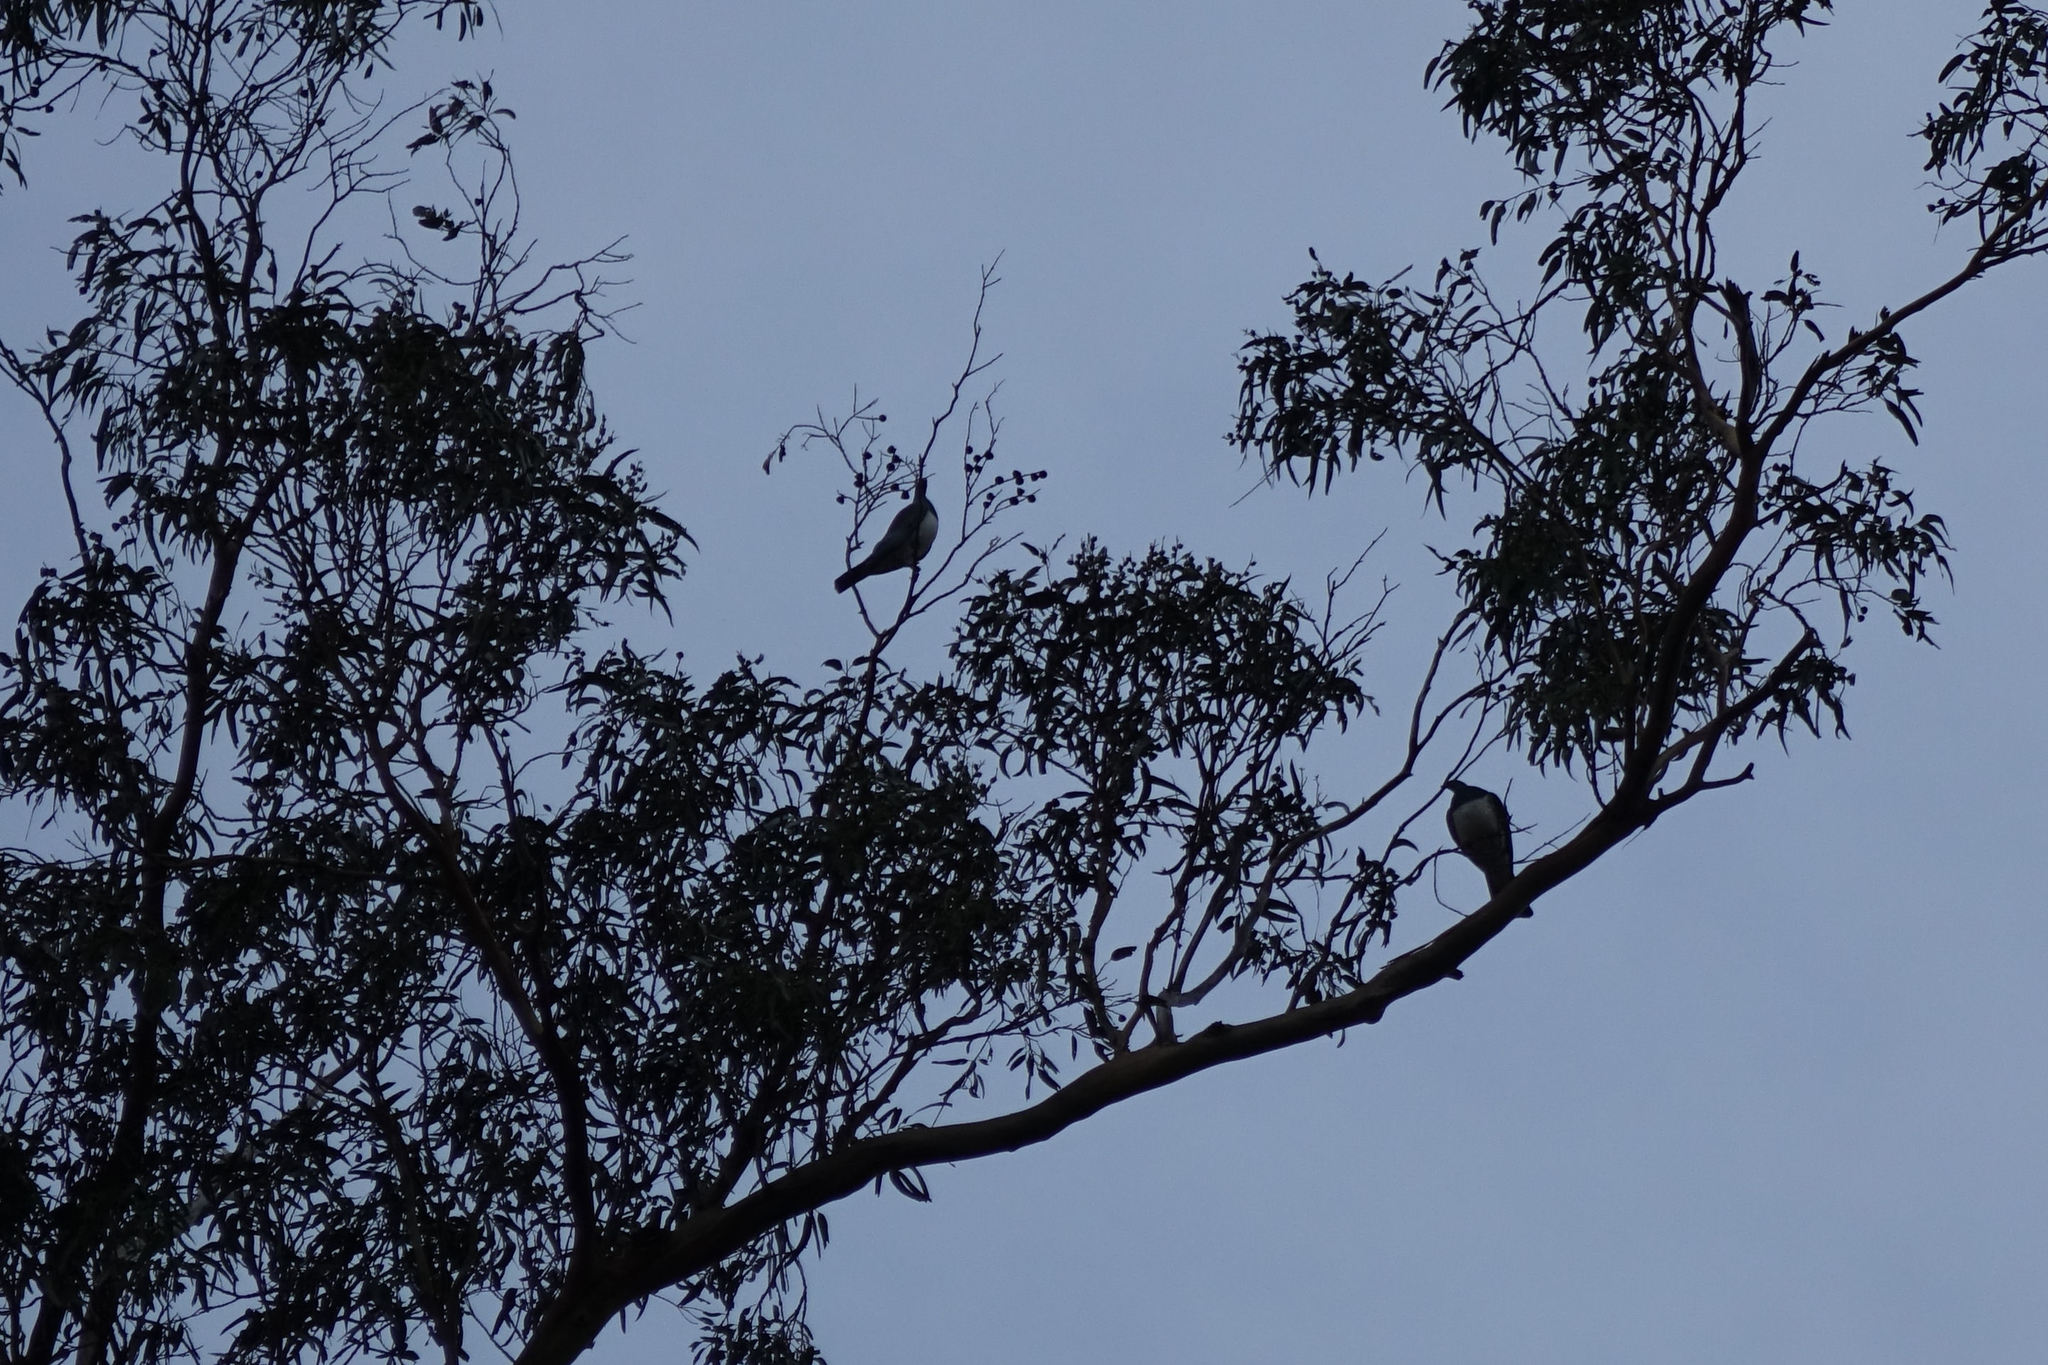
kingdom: Animalia
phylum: Chordata
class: Aves
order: Columbiformes
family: Columbidae
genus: Hemiphaga
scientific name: Hemiphaga novaeseelandiae
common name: New zealand pigeon
